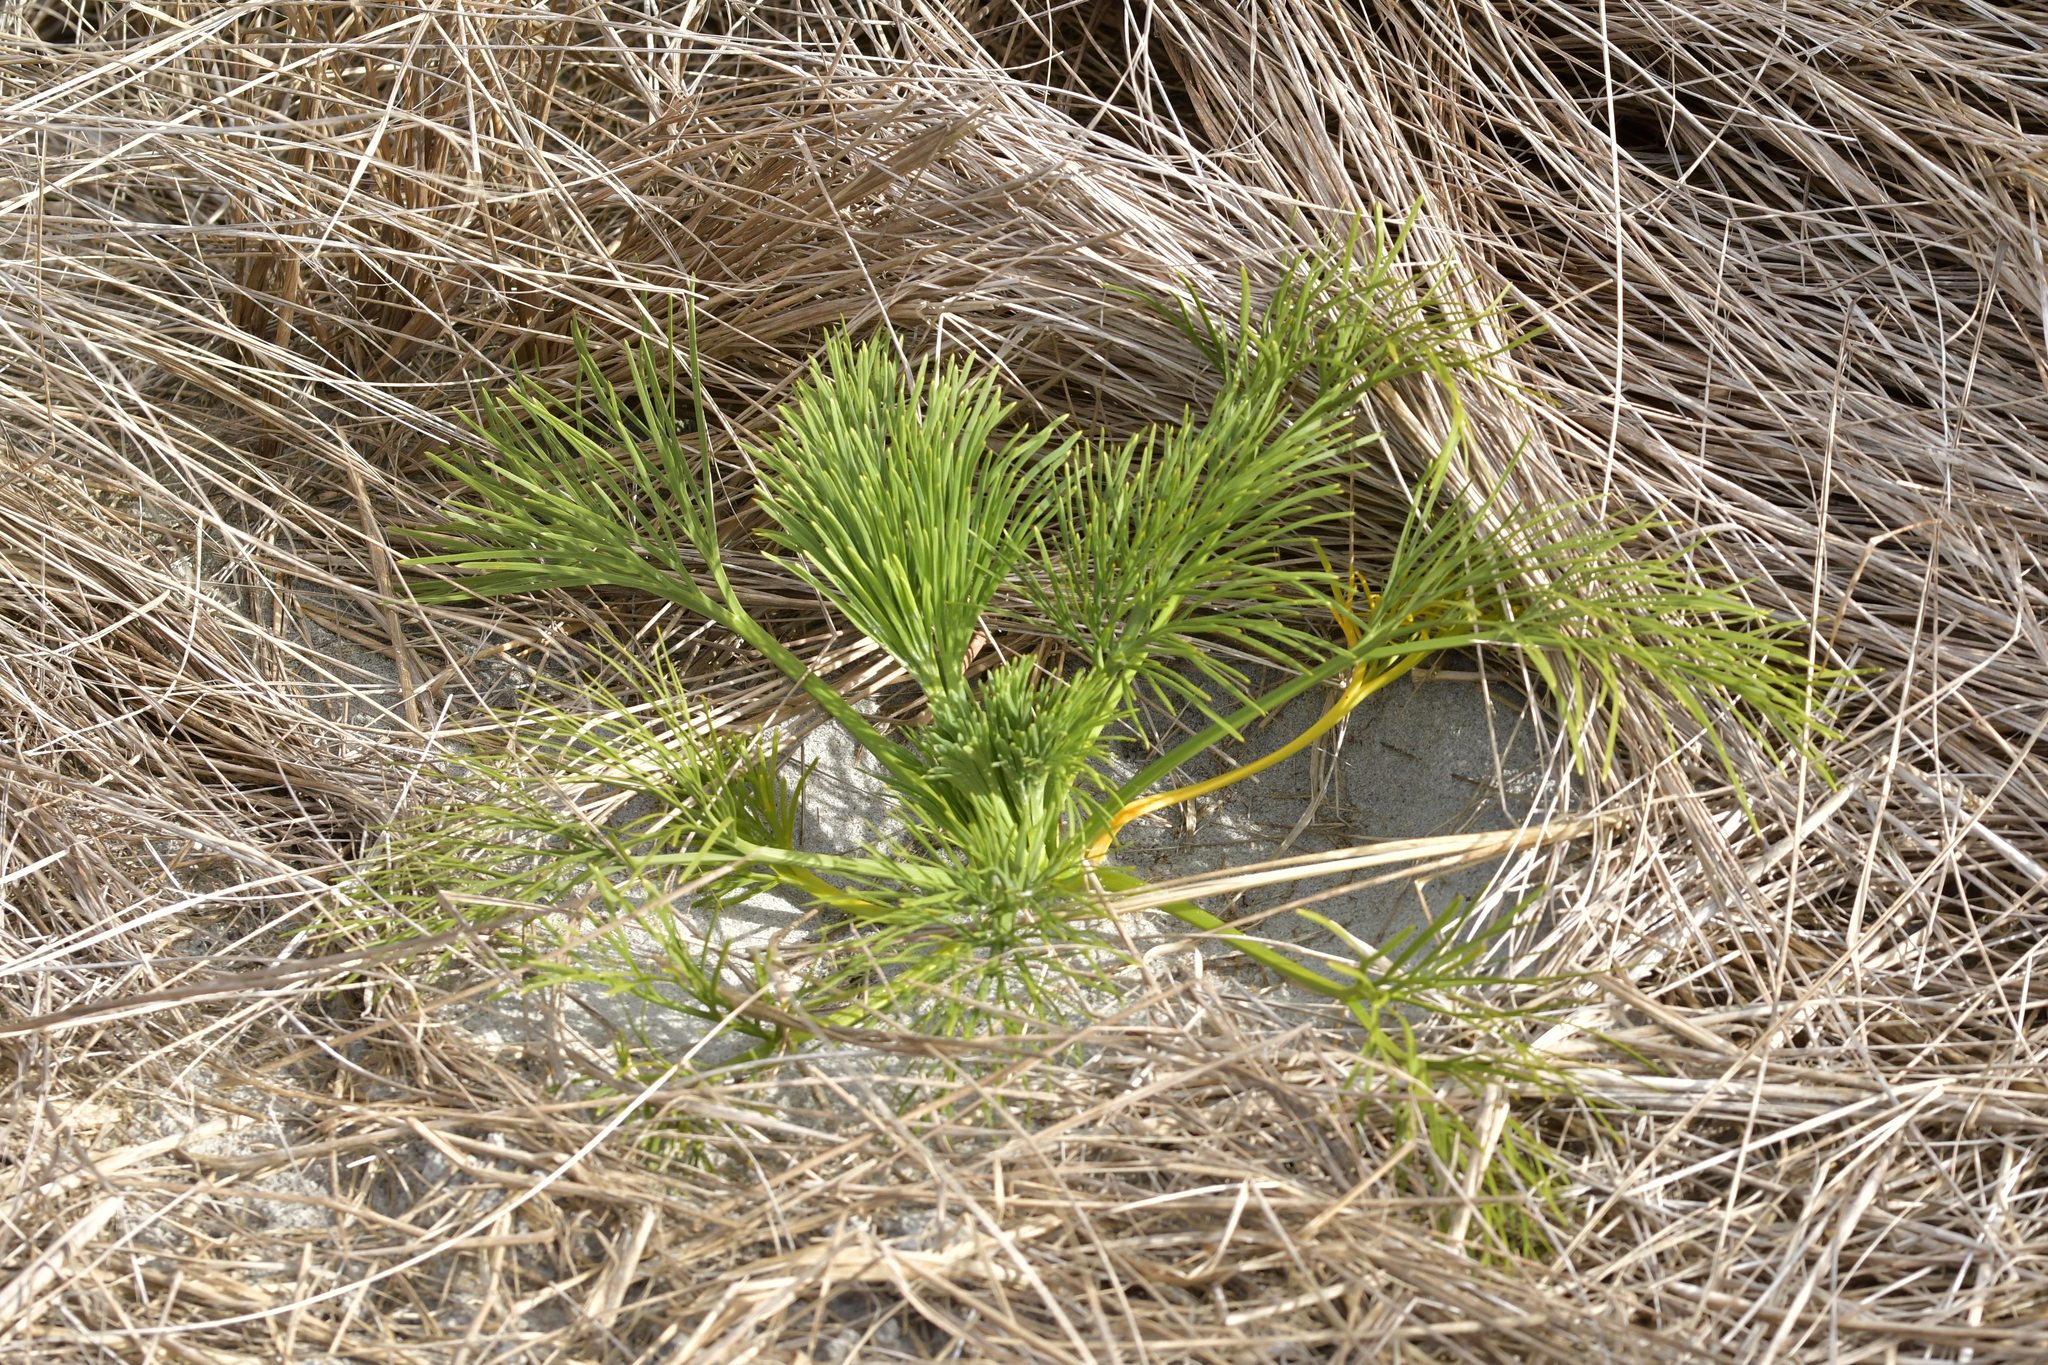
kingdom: Plantae
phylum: Tracheophyta
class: Magnoliopsida
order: Apiales
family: Apiaceae
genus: Aciphylla
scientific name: Aciphylla dieffenbachii
